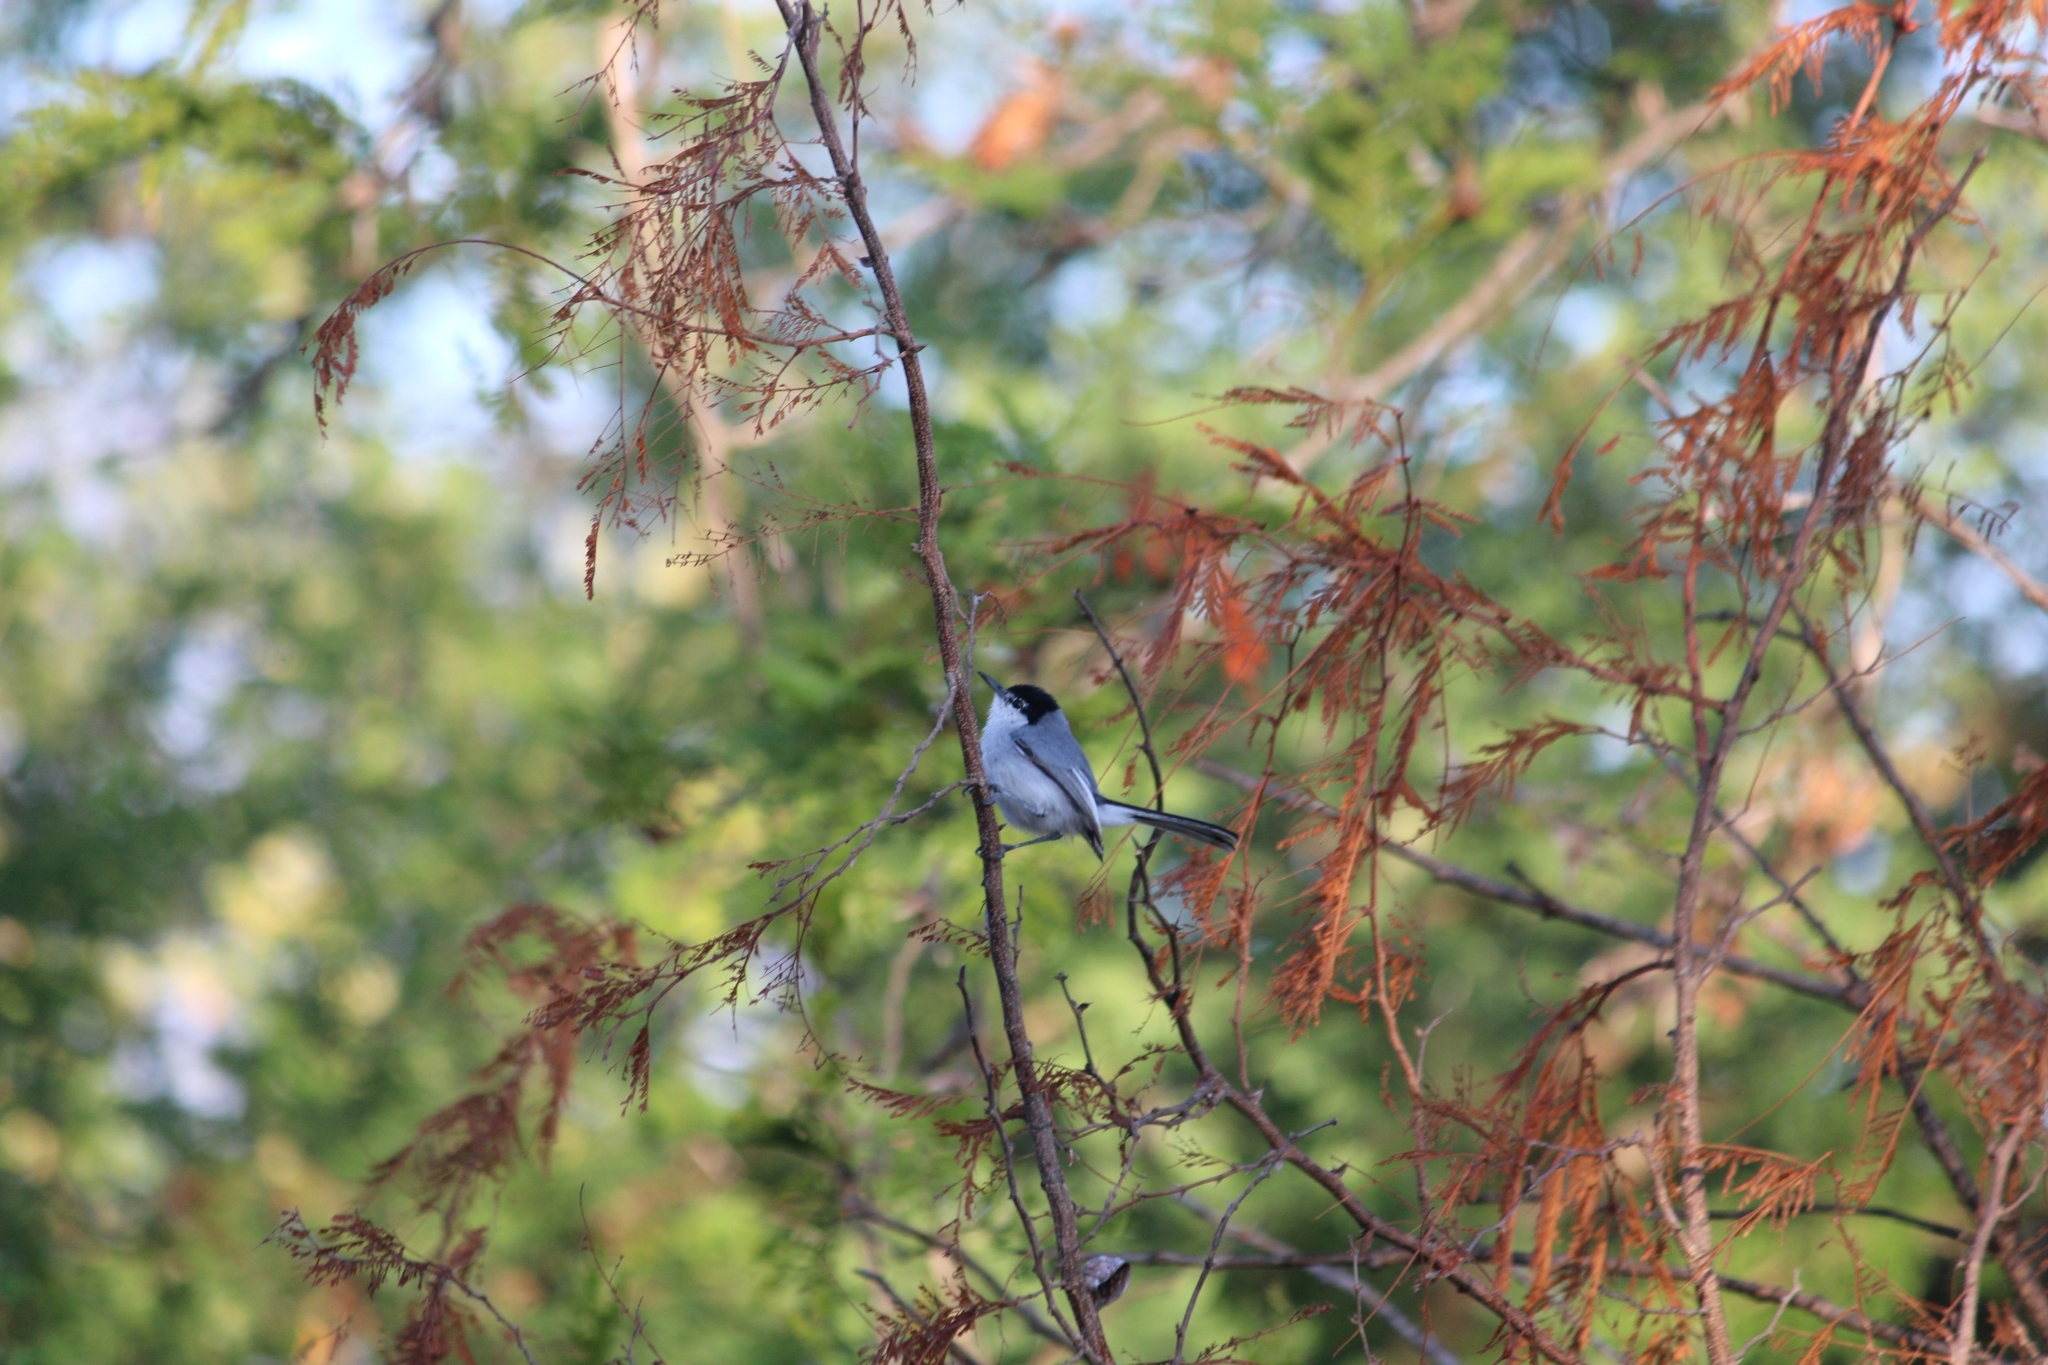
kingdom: Animalia
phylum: Chordata
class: Aves
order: Passeriformes
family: Polioptilidae
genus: Polioptila
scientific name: Polioptila albiloris
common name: White-lored gnatcatcher
